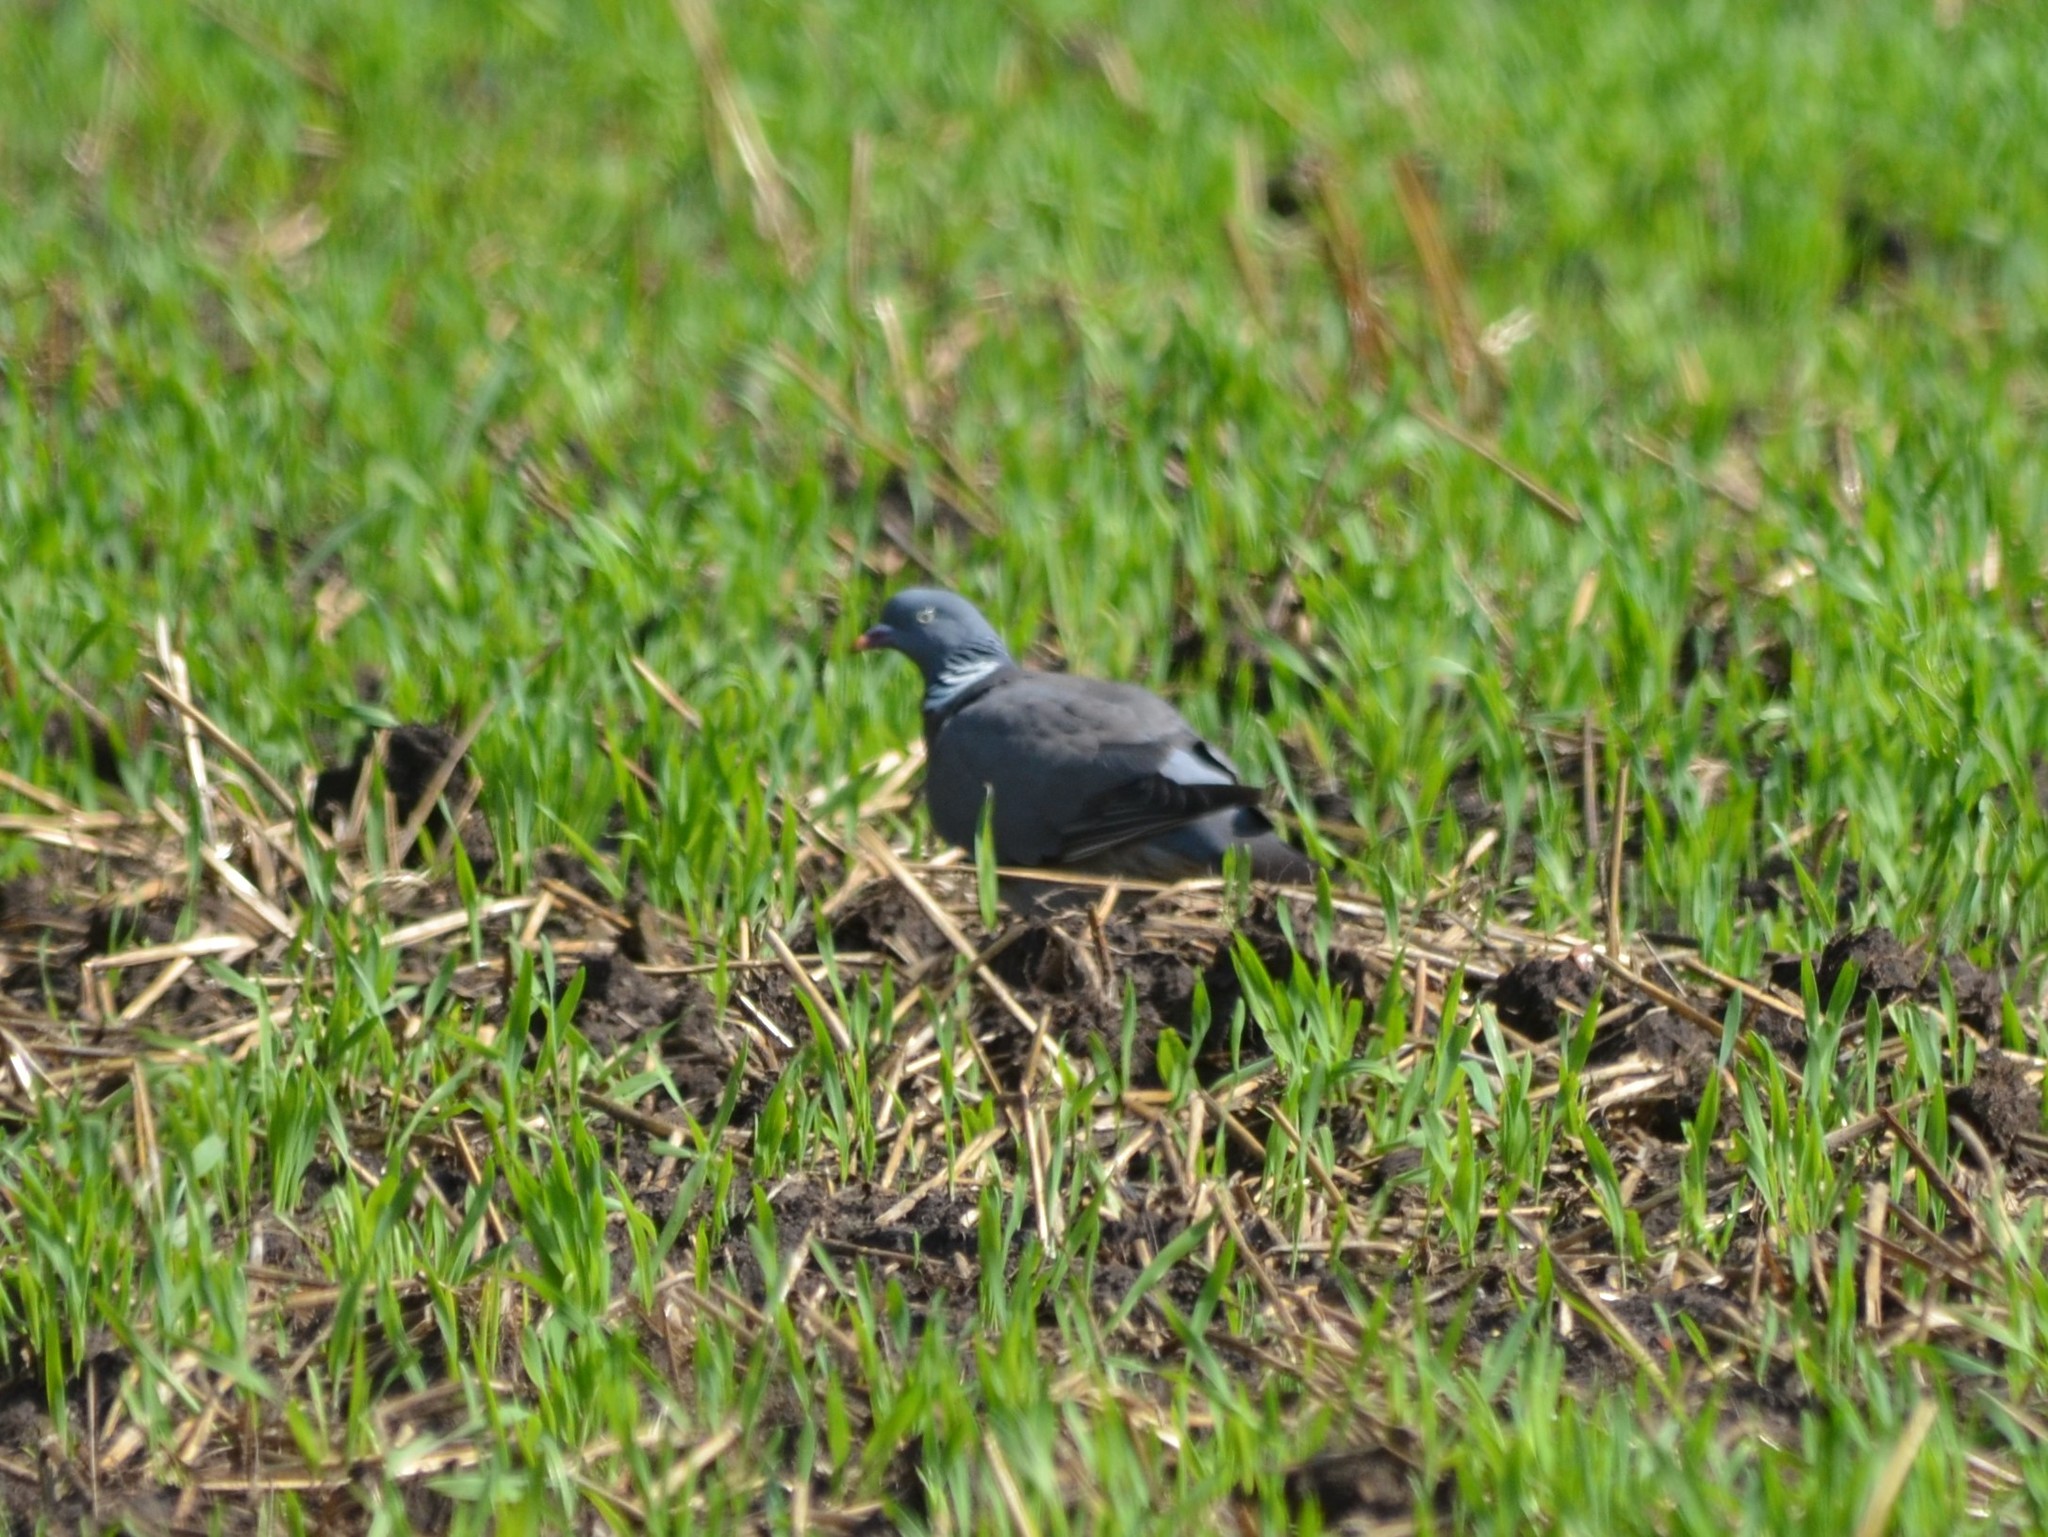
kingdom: Animalia
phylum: Chordata
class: Aves
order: Columbiformes
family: Columbidae
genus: Columba
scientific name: Columba palumbus
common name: Common wood pigeon
